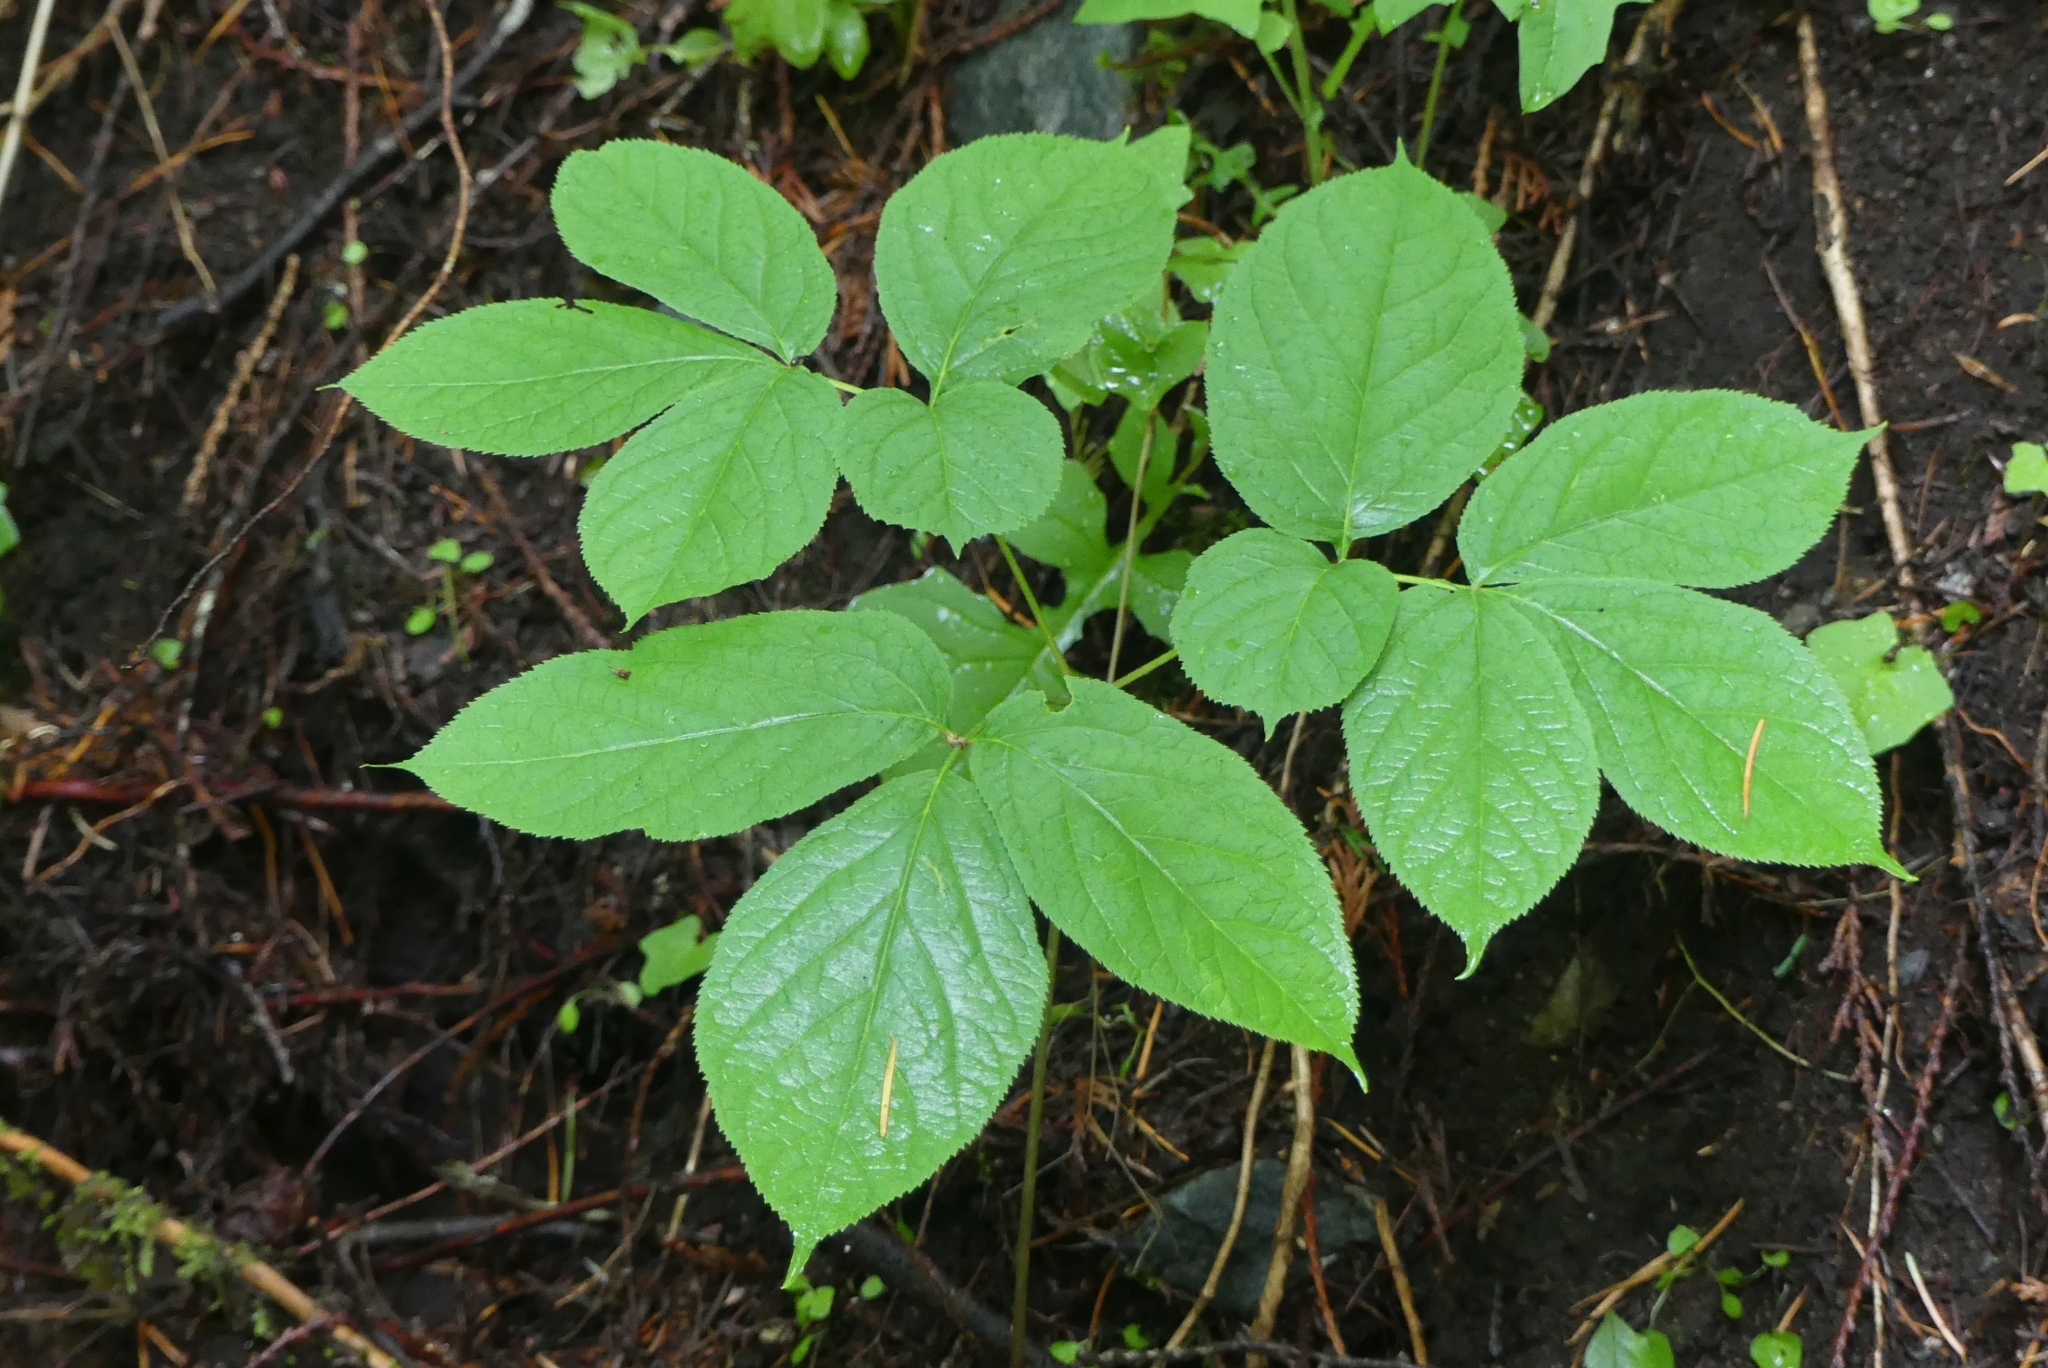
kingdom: Plantae
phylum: Tracheophyta
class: Magnoliopsida
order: Apiales
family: Araliaceae
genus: Aralia
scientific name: Aralia nudicaulis
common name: Wild sarsaparilla
